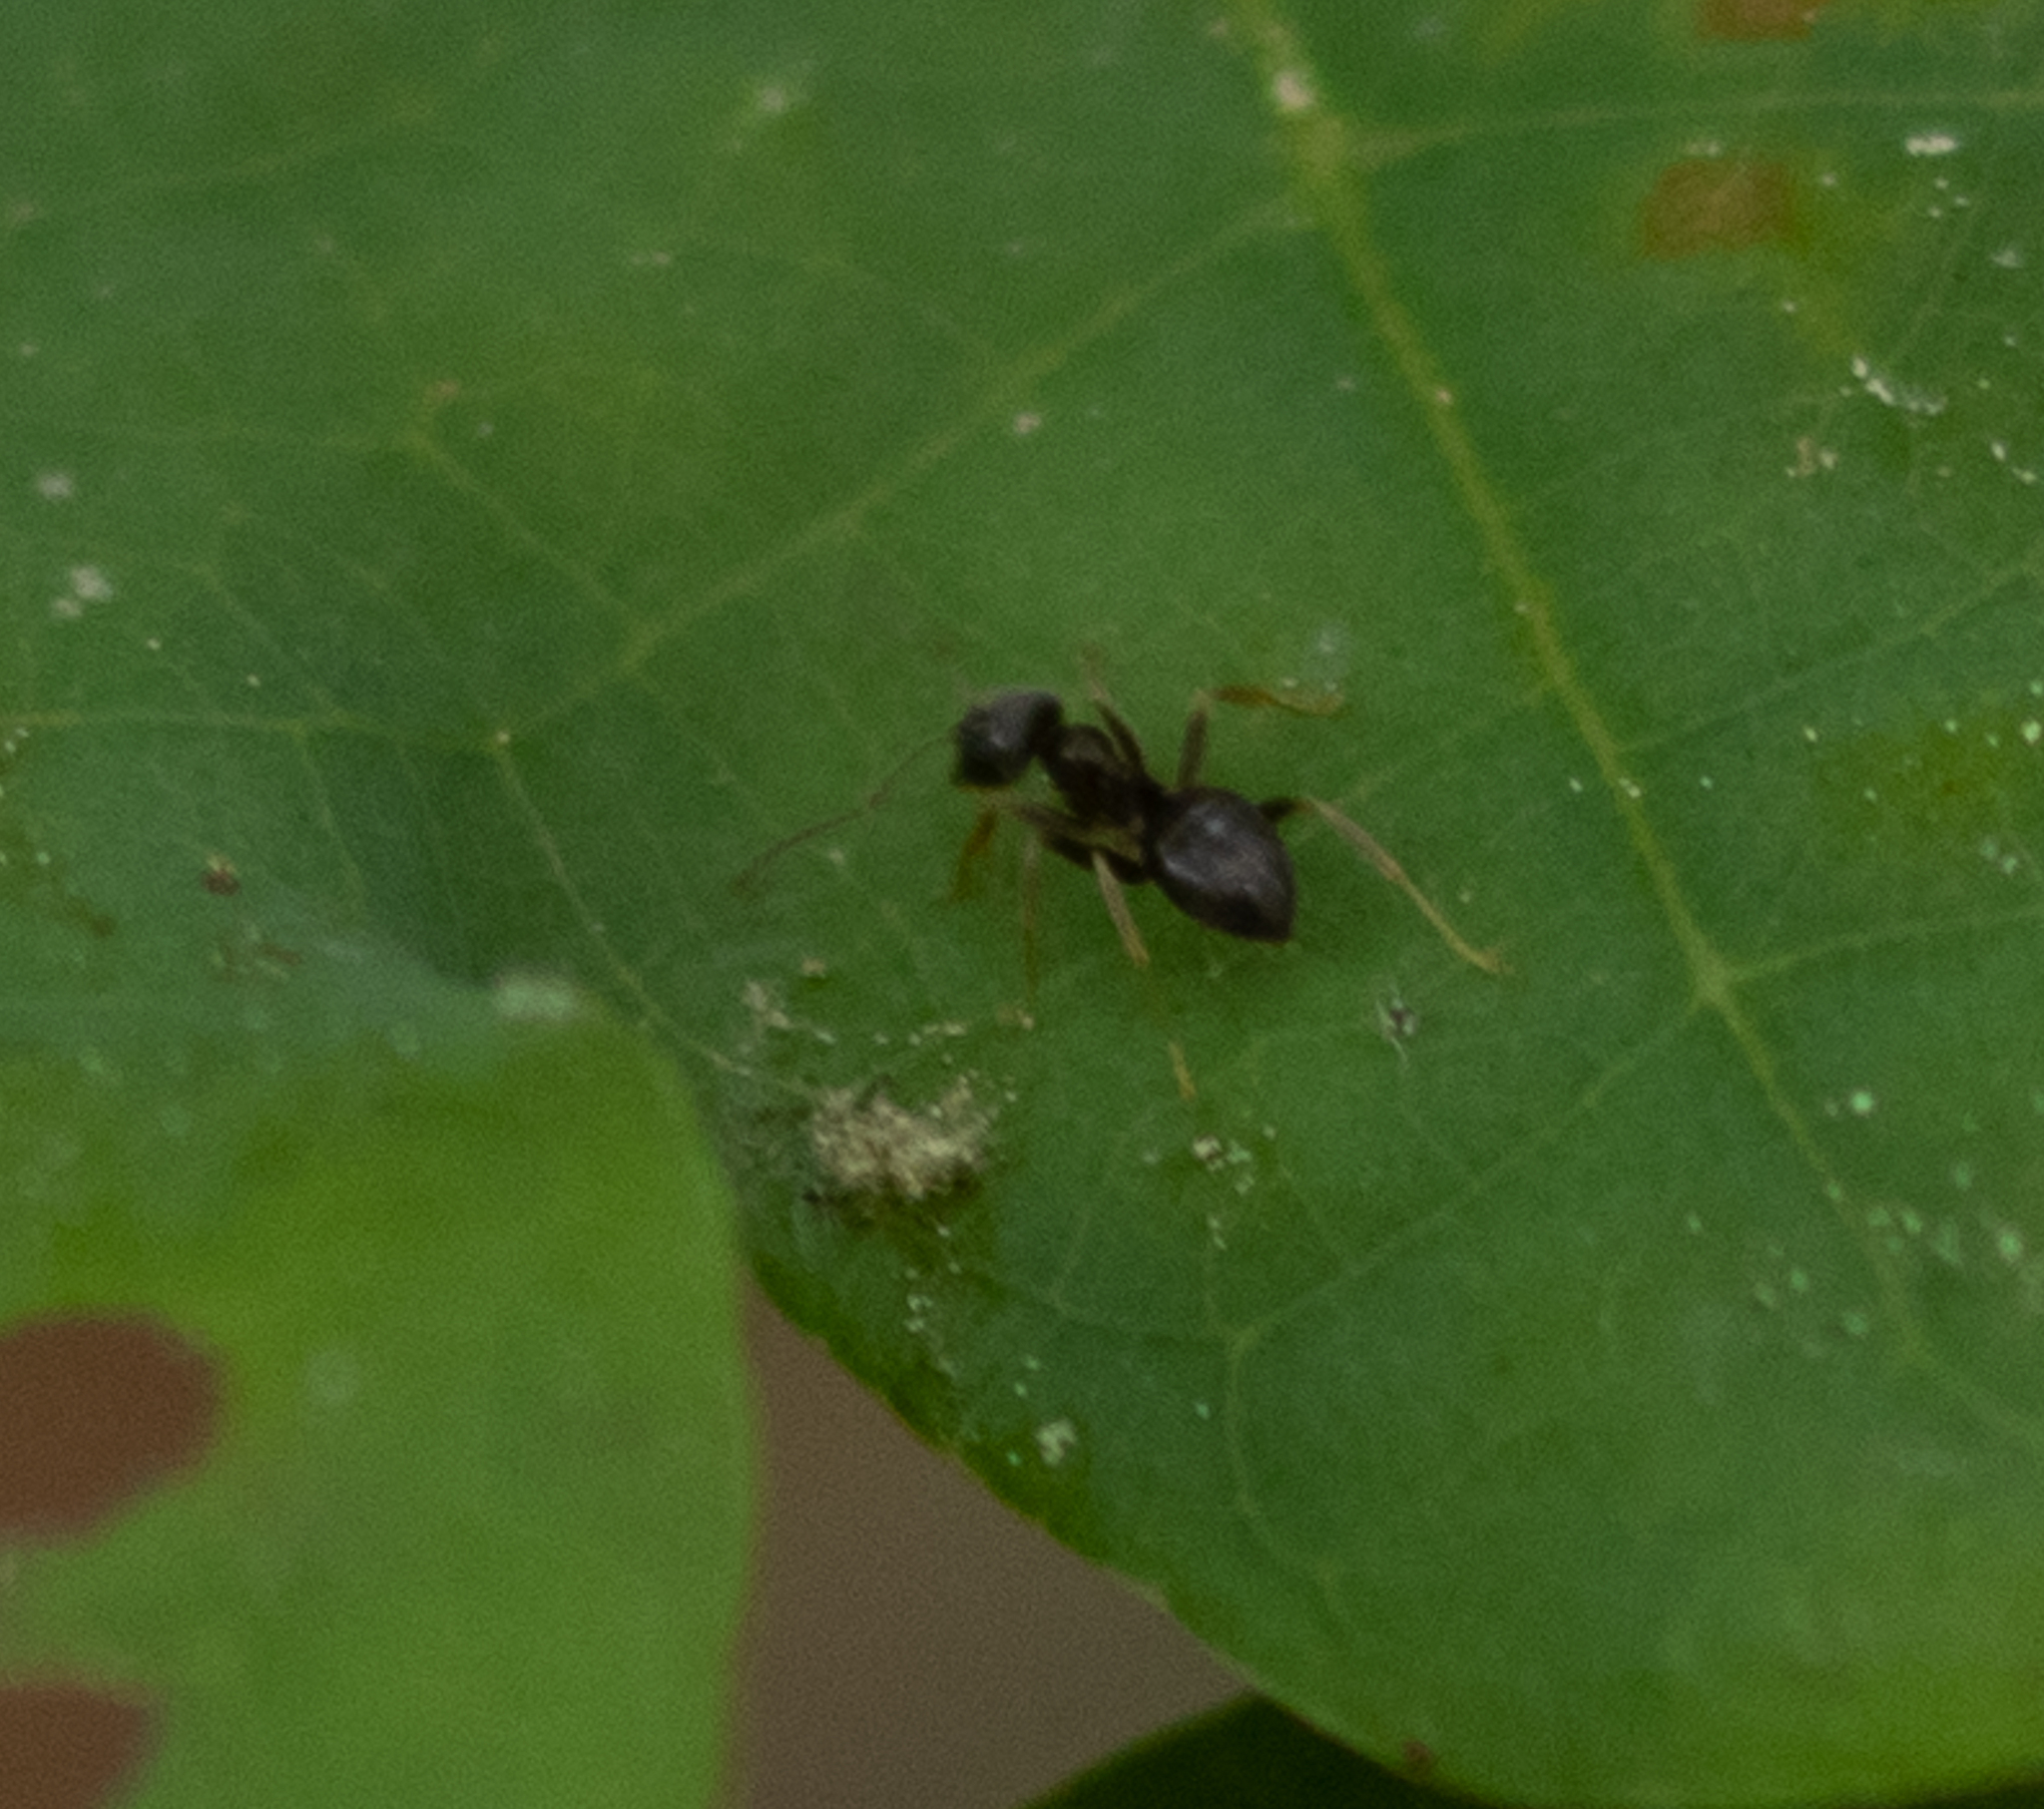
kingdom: Animalia
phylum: Arthropoda
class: Insecta
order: Hymenoptera
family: Formicidae
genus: Lasius
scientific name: Lasius americanus
